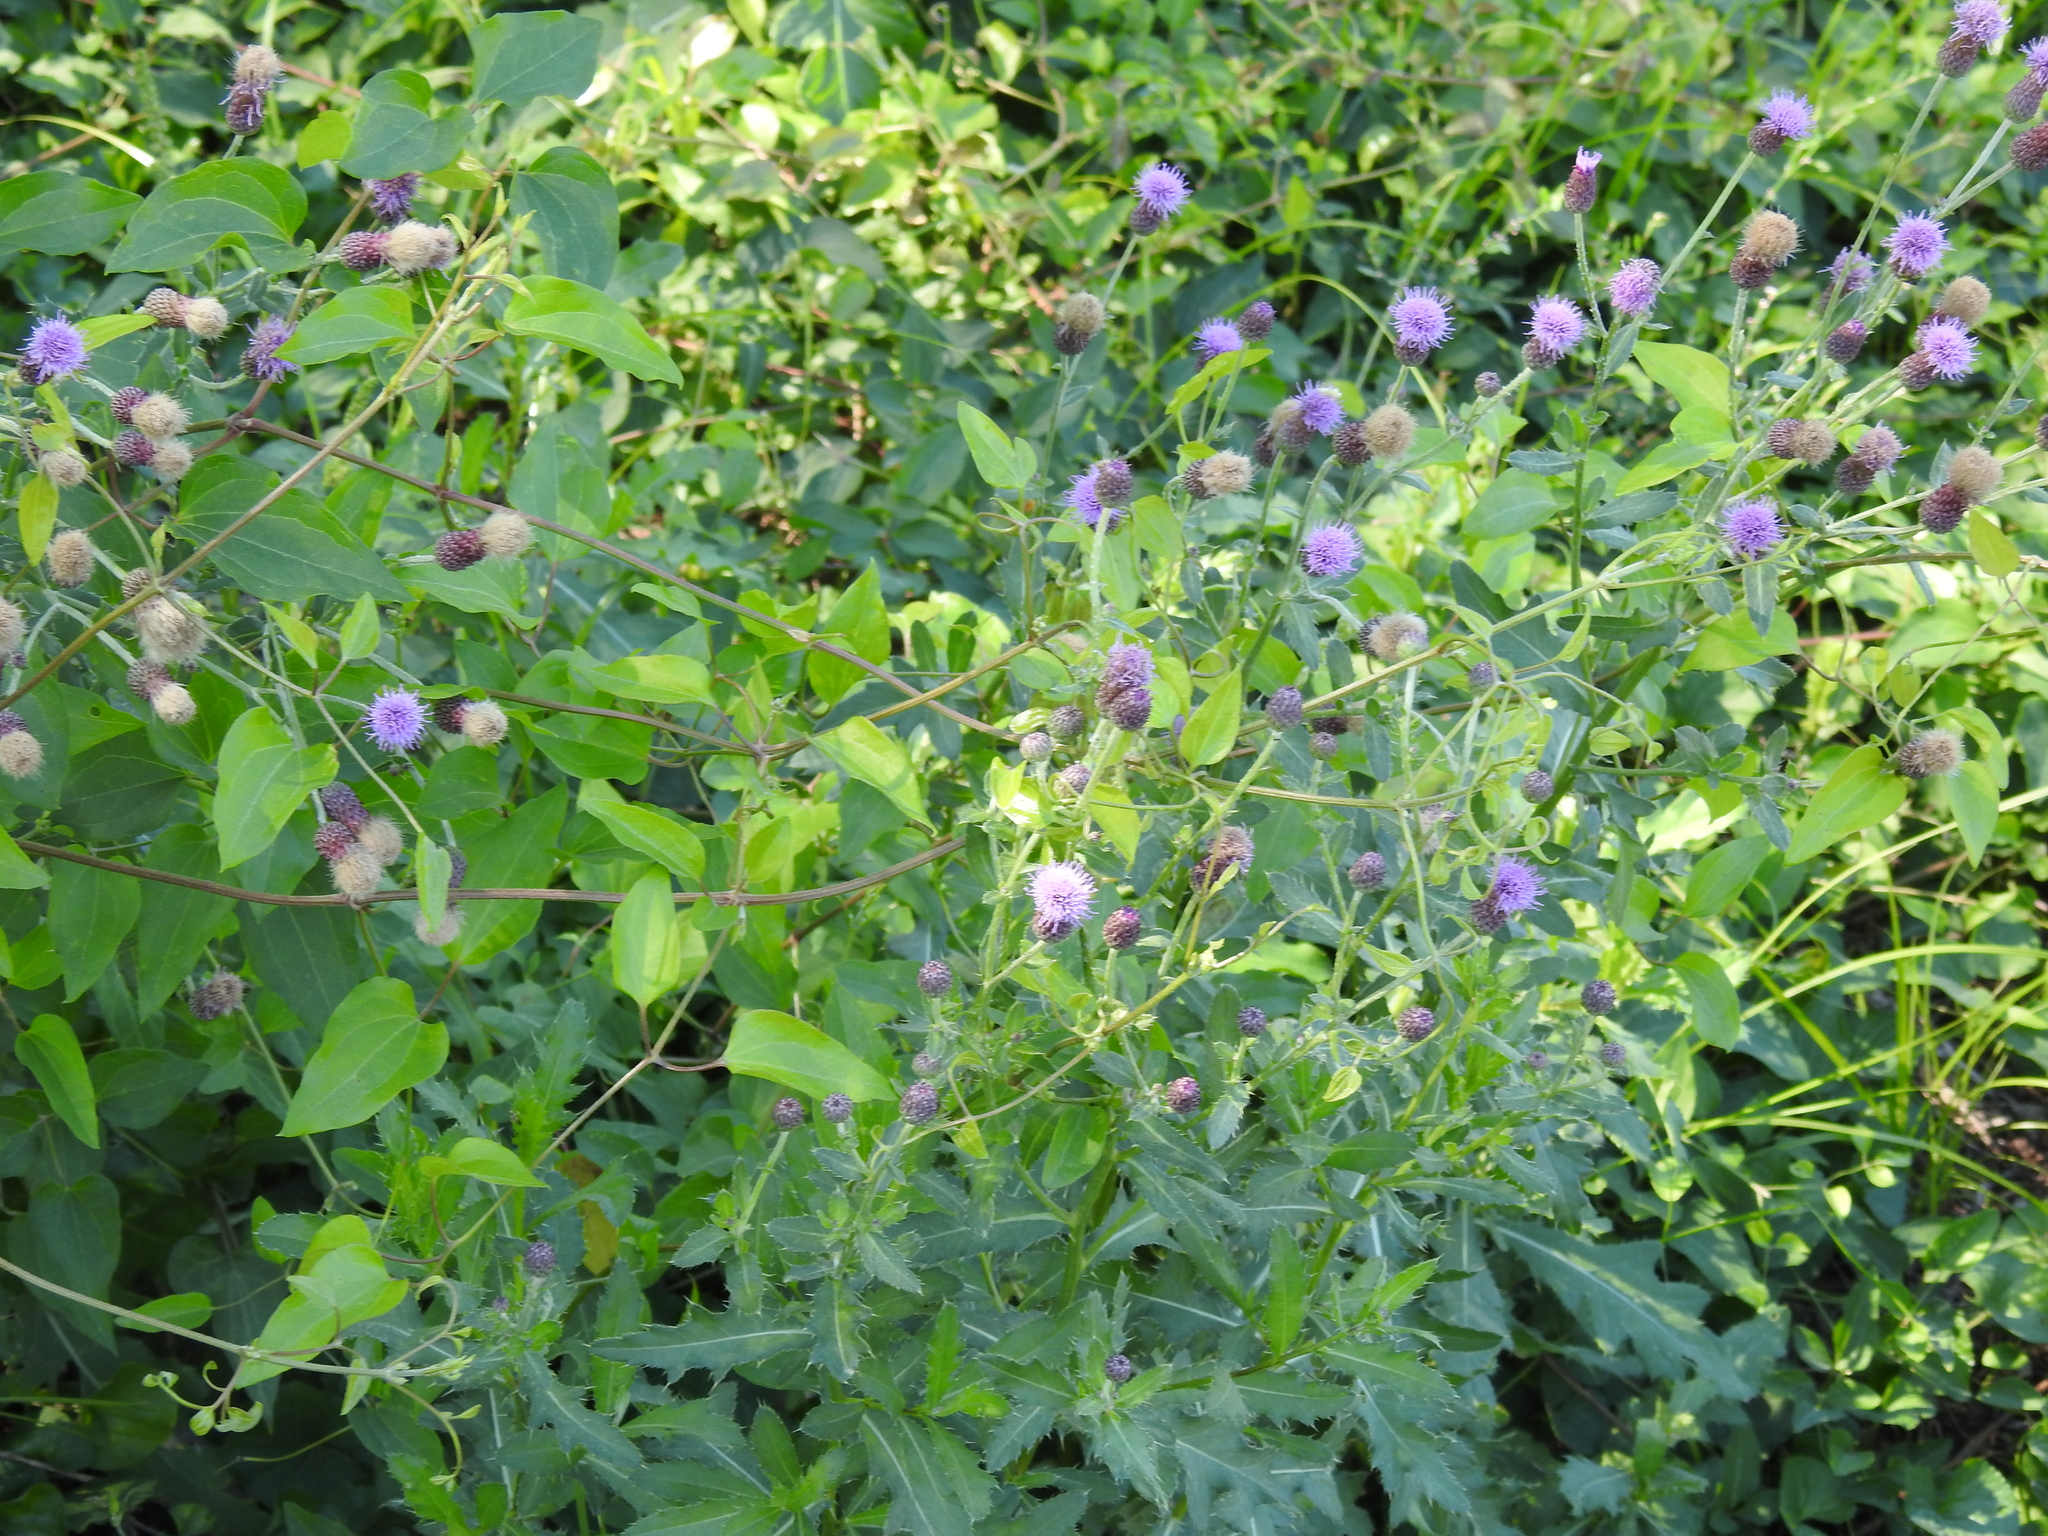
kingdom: Plantae
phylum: Tracheophyta
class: Magnoliopsida
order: Asterales
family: Asteraceae
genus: Cirsium
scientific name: Cirsium arvense
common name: Creeping thistle
